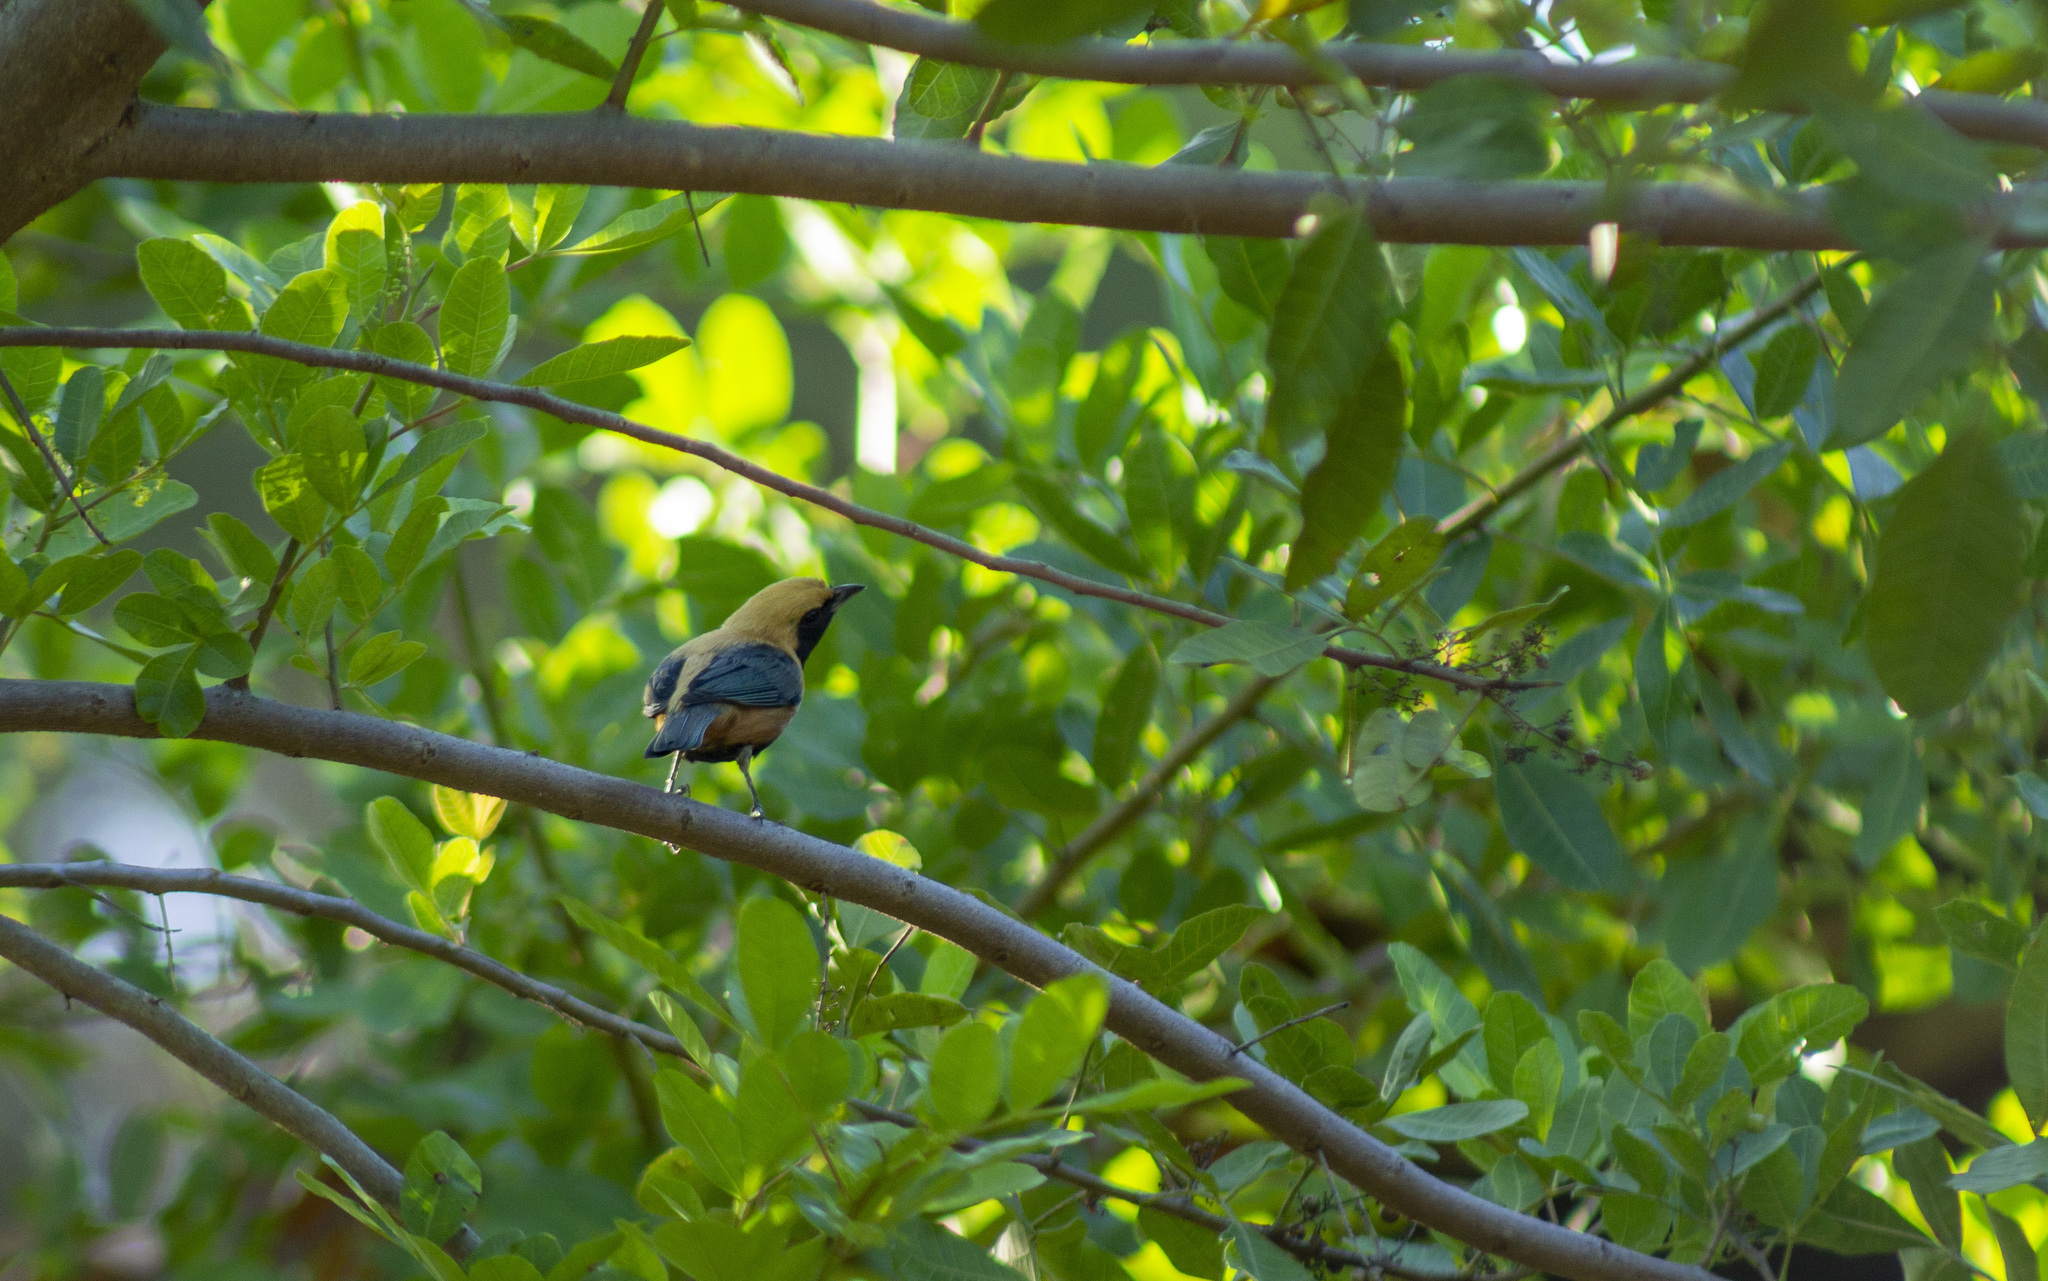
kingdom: Animalia
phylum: Chordata
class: Aves
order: Passeriformes
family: Thraupidae
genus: Stilpnia
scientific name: Stilpnia cayana
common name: Burnished-buff tanager
